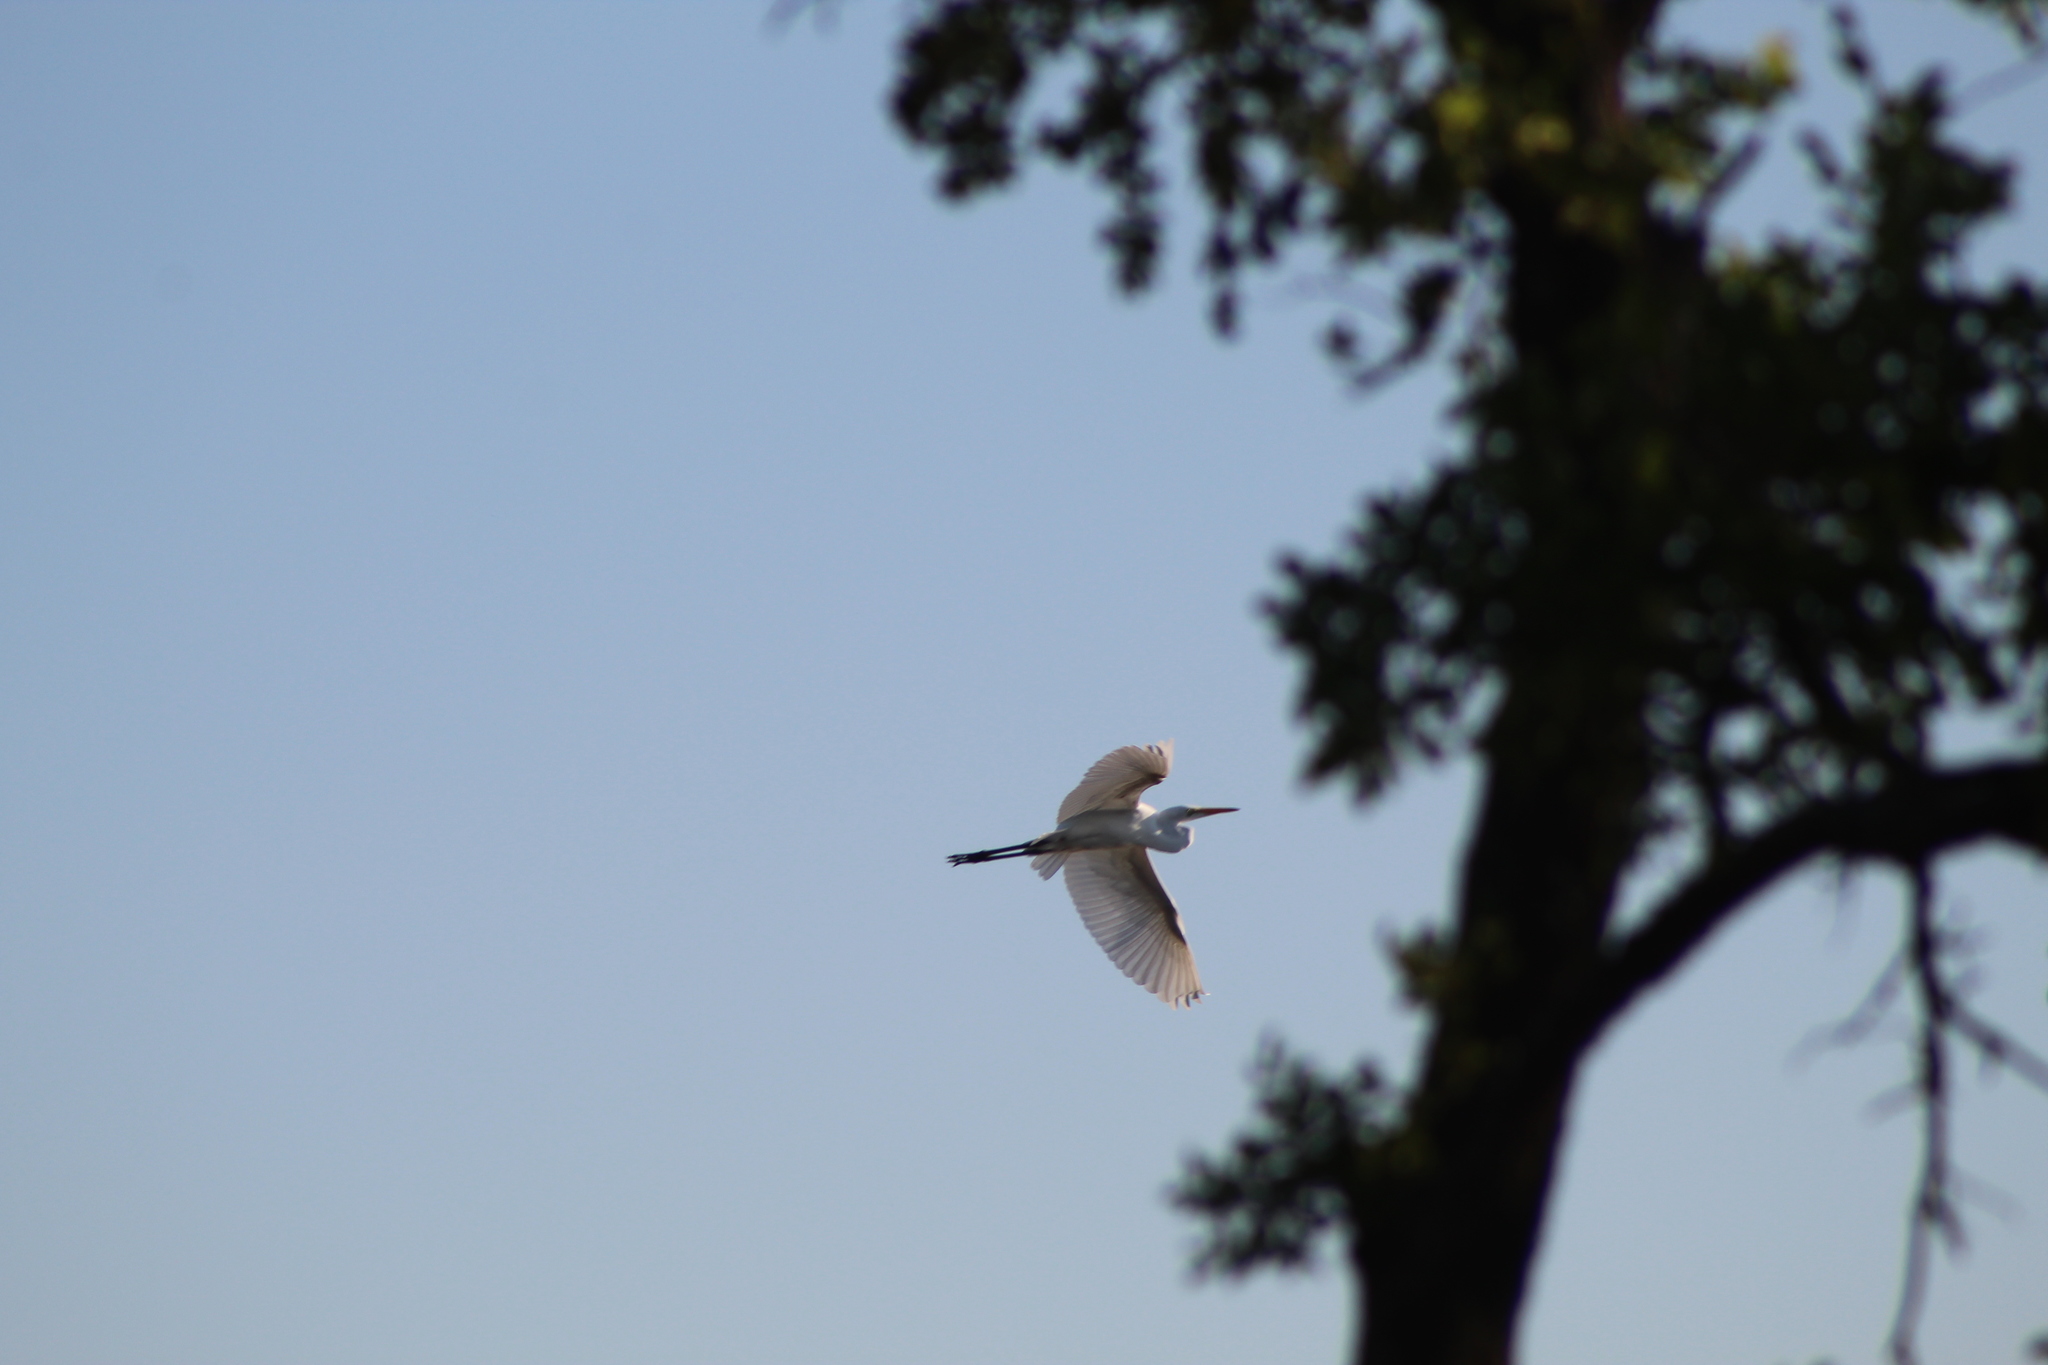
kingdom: Animalia
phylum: Chordata
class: Aves
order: Pelecaniformes
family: Ardeidae
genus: Ardea
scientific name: Ardea alba
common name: Great egret
